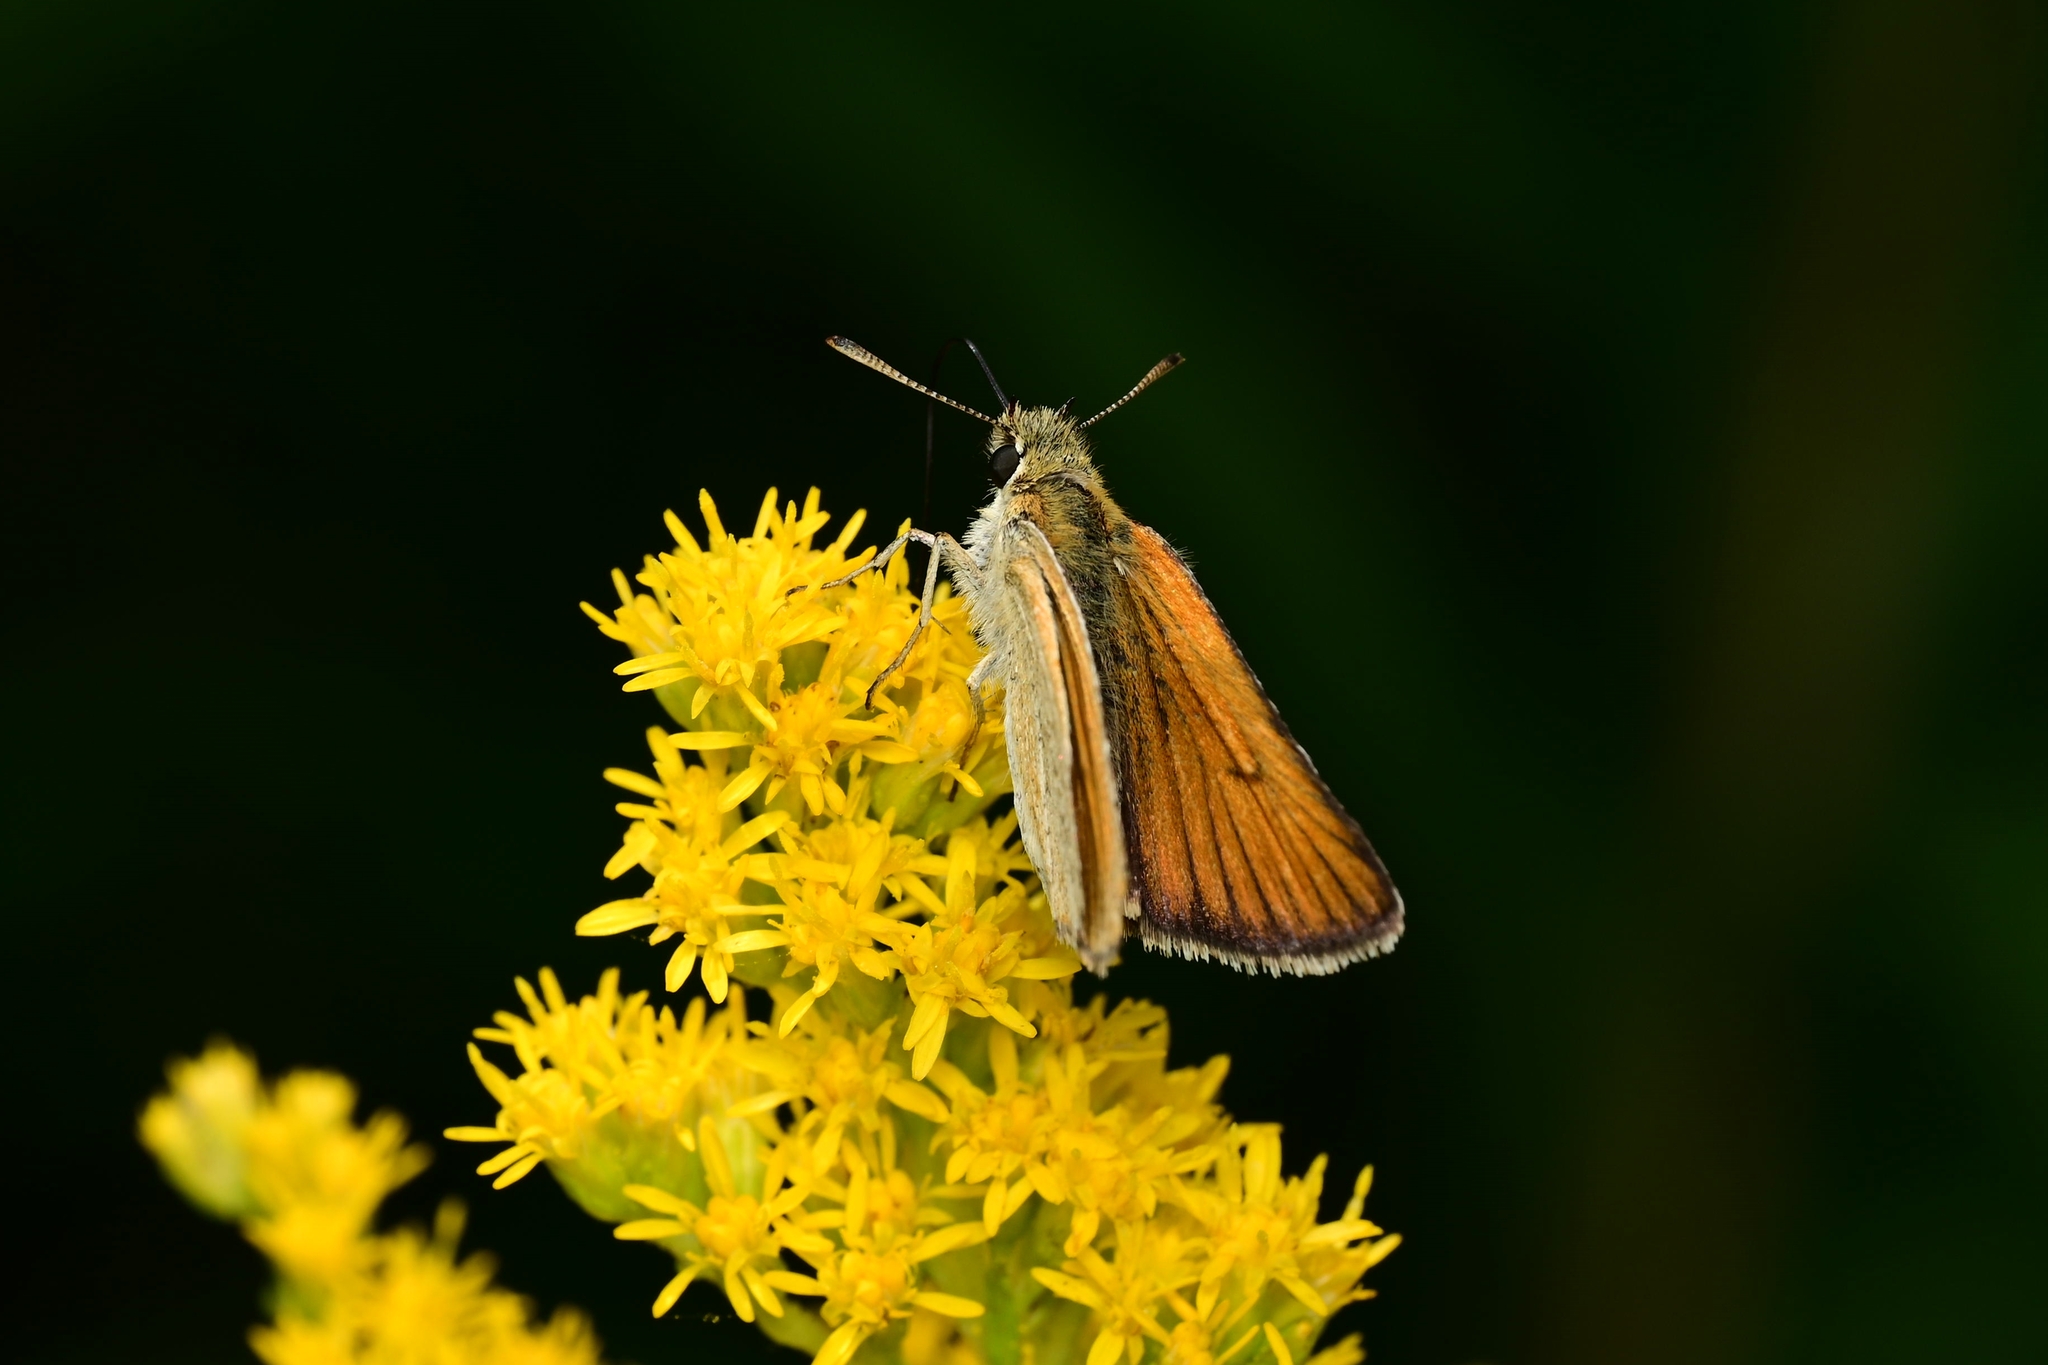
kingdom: Animalia
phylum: Arthropoda
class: Insecta
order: Lepidoptera
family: Hesperiidae
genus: Thymelicus
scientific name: Thymelicus lineola
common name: Essex skipper
